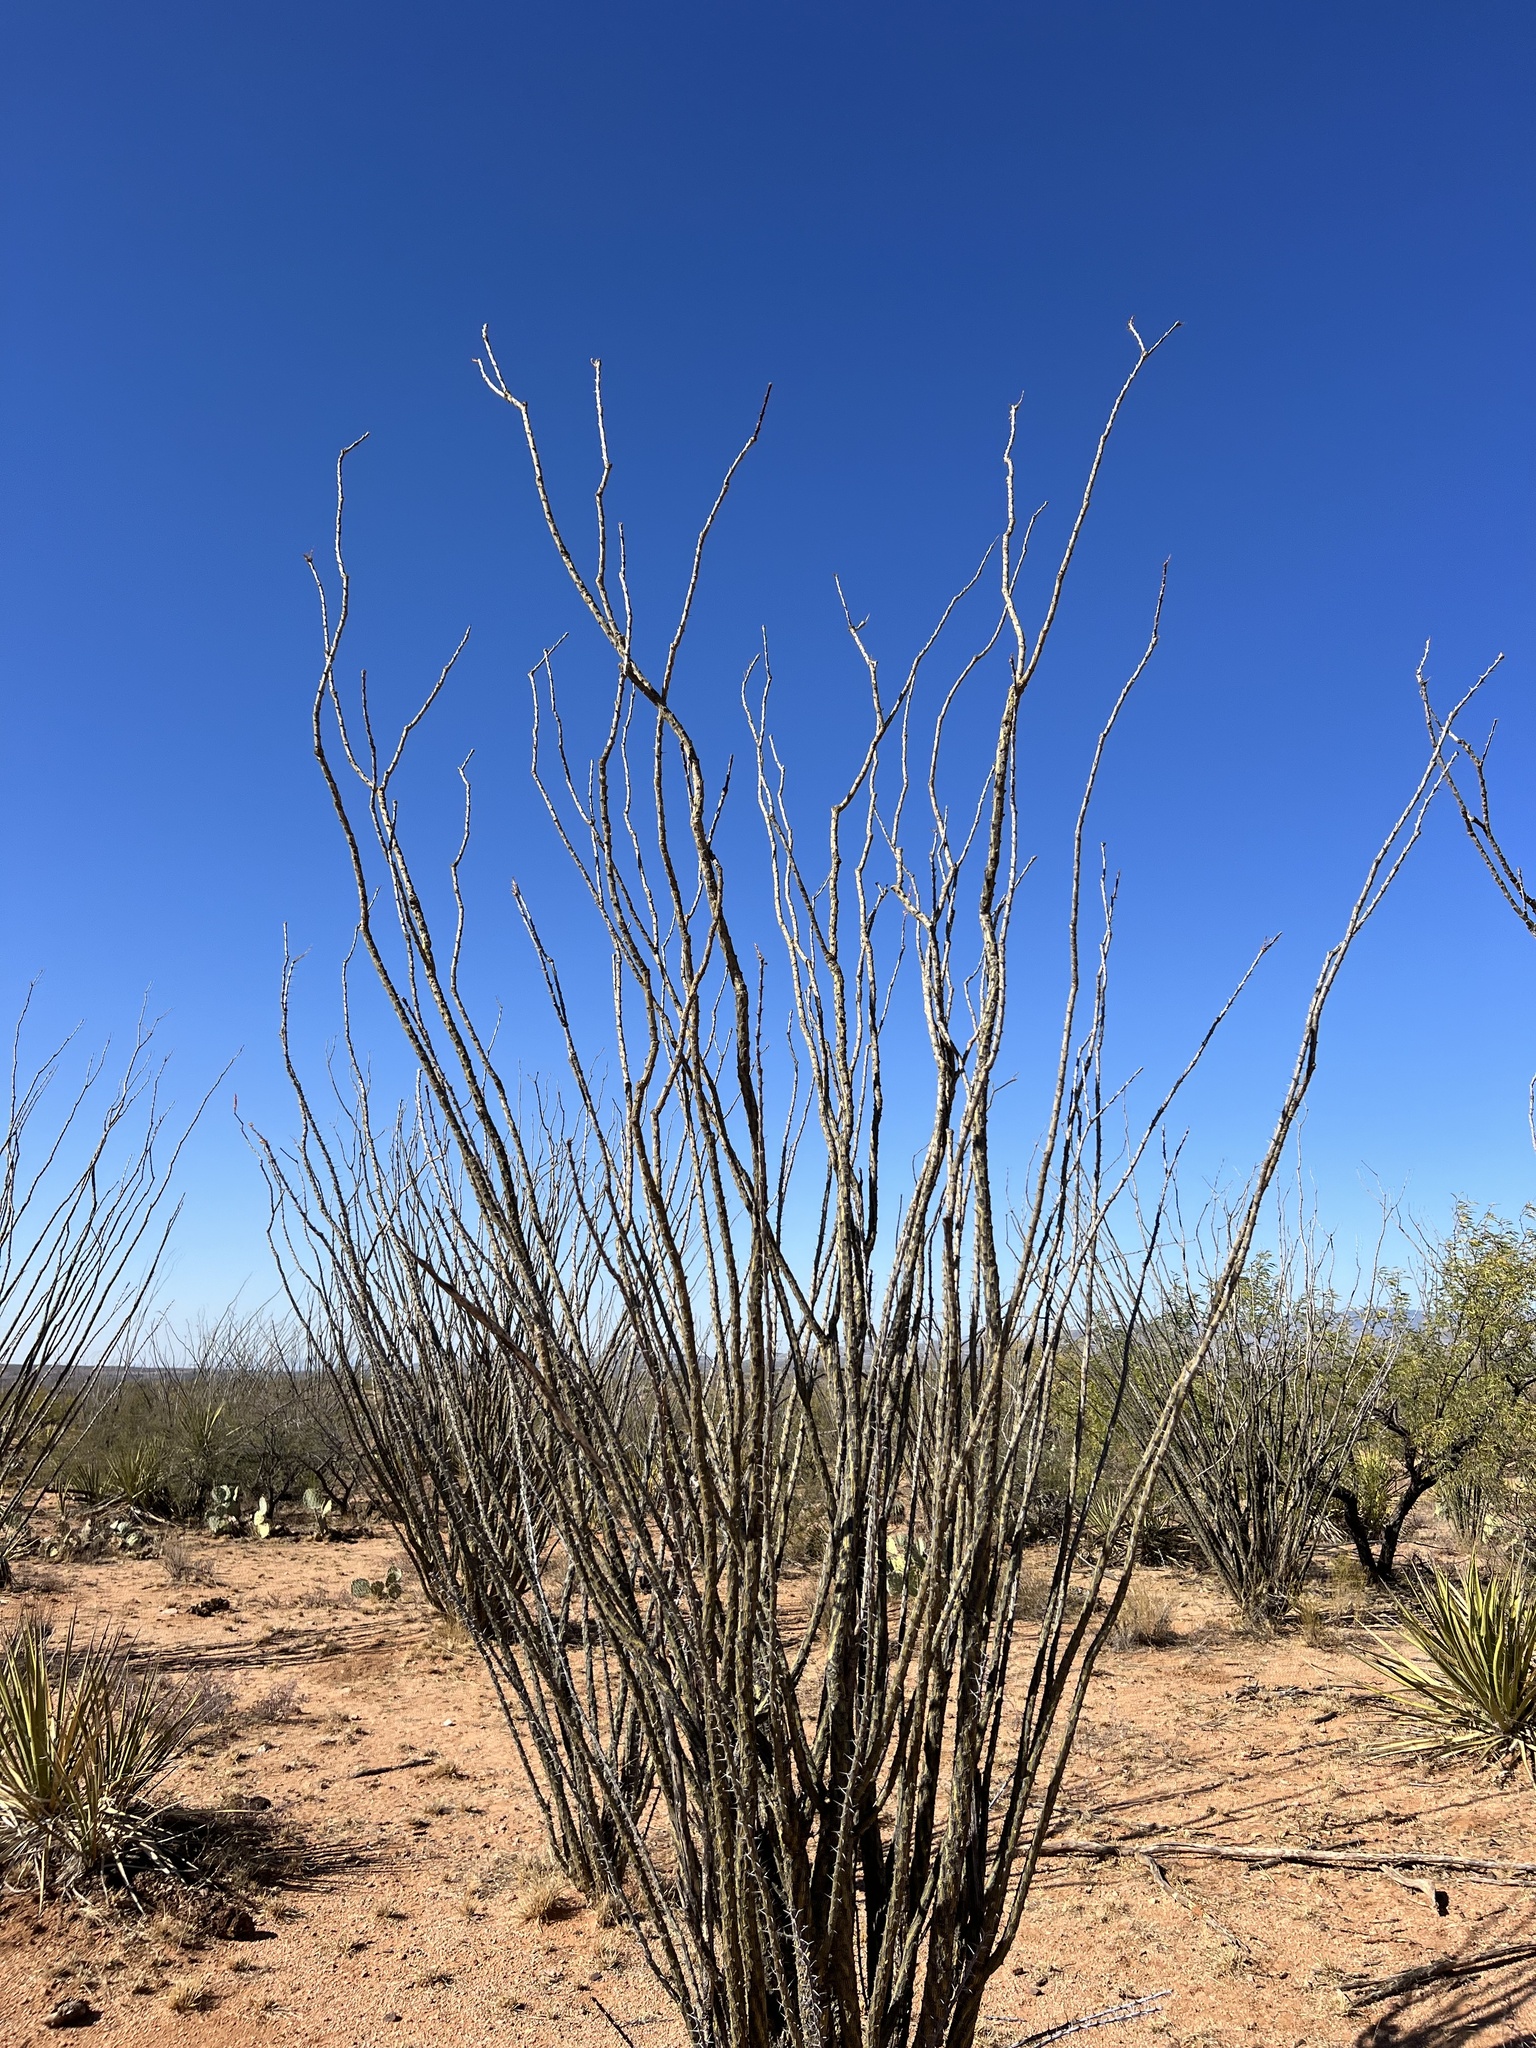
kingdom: Plantae
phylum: Tracheophyta
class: Magnoliopsida
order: Ericales
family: Fouquieriaceae
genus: Fouquieria
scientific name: Fouquieria splendens
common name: Vine-cactus
